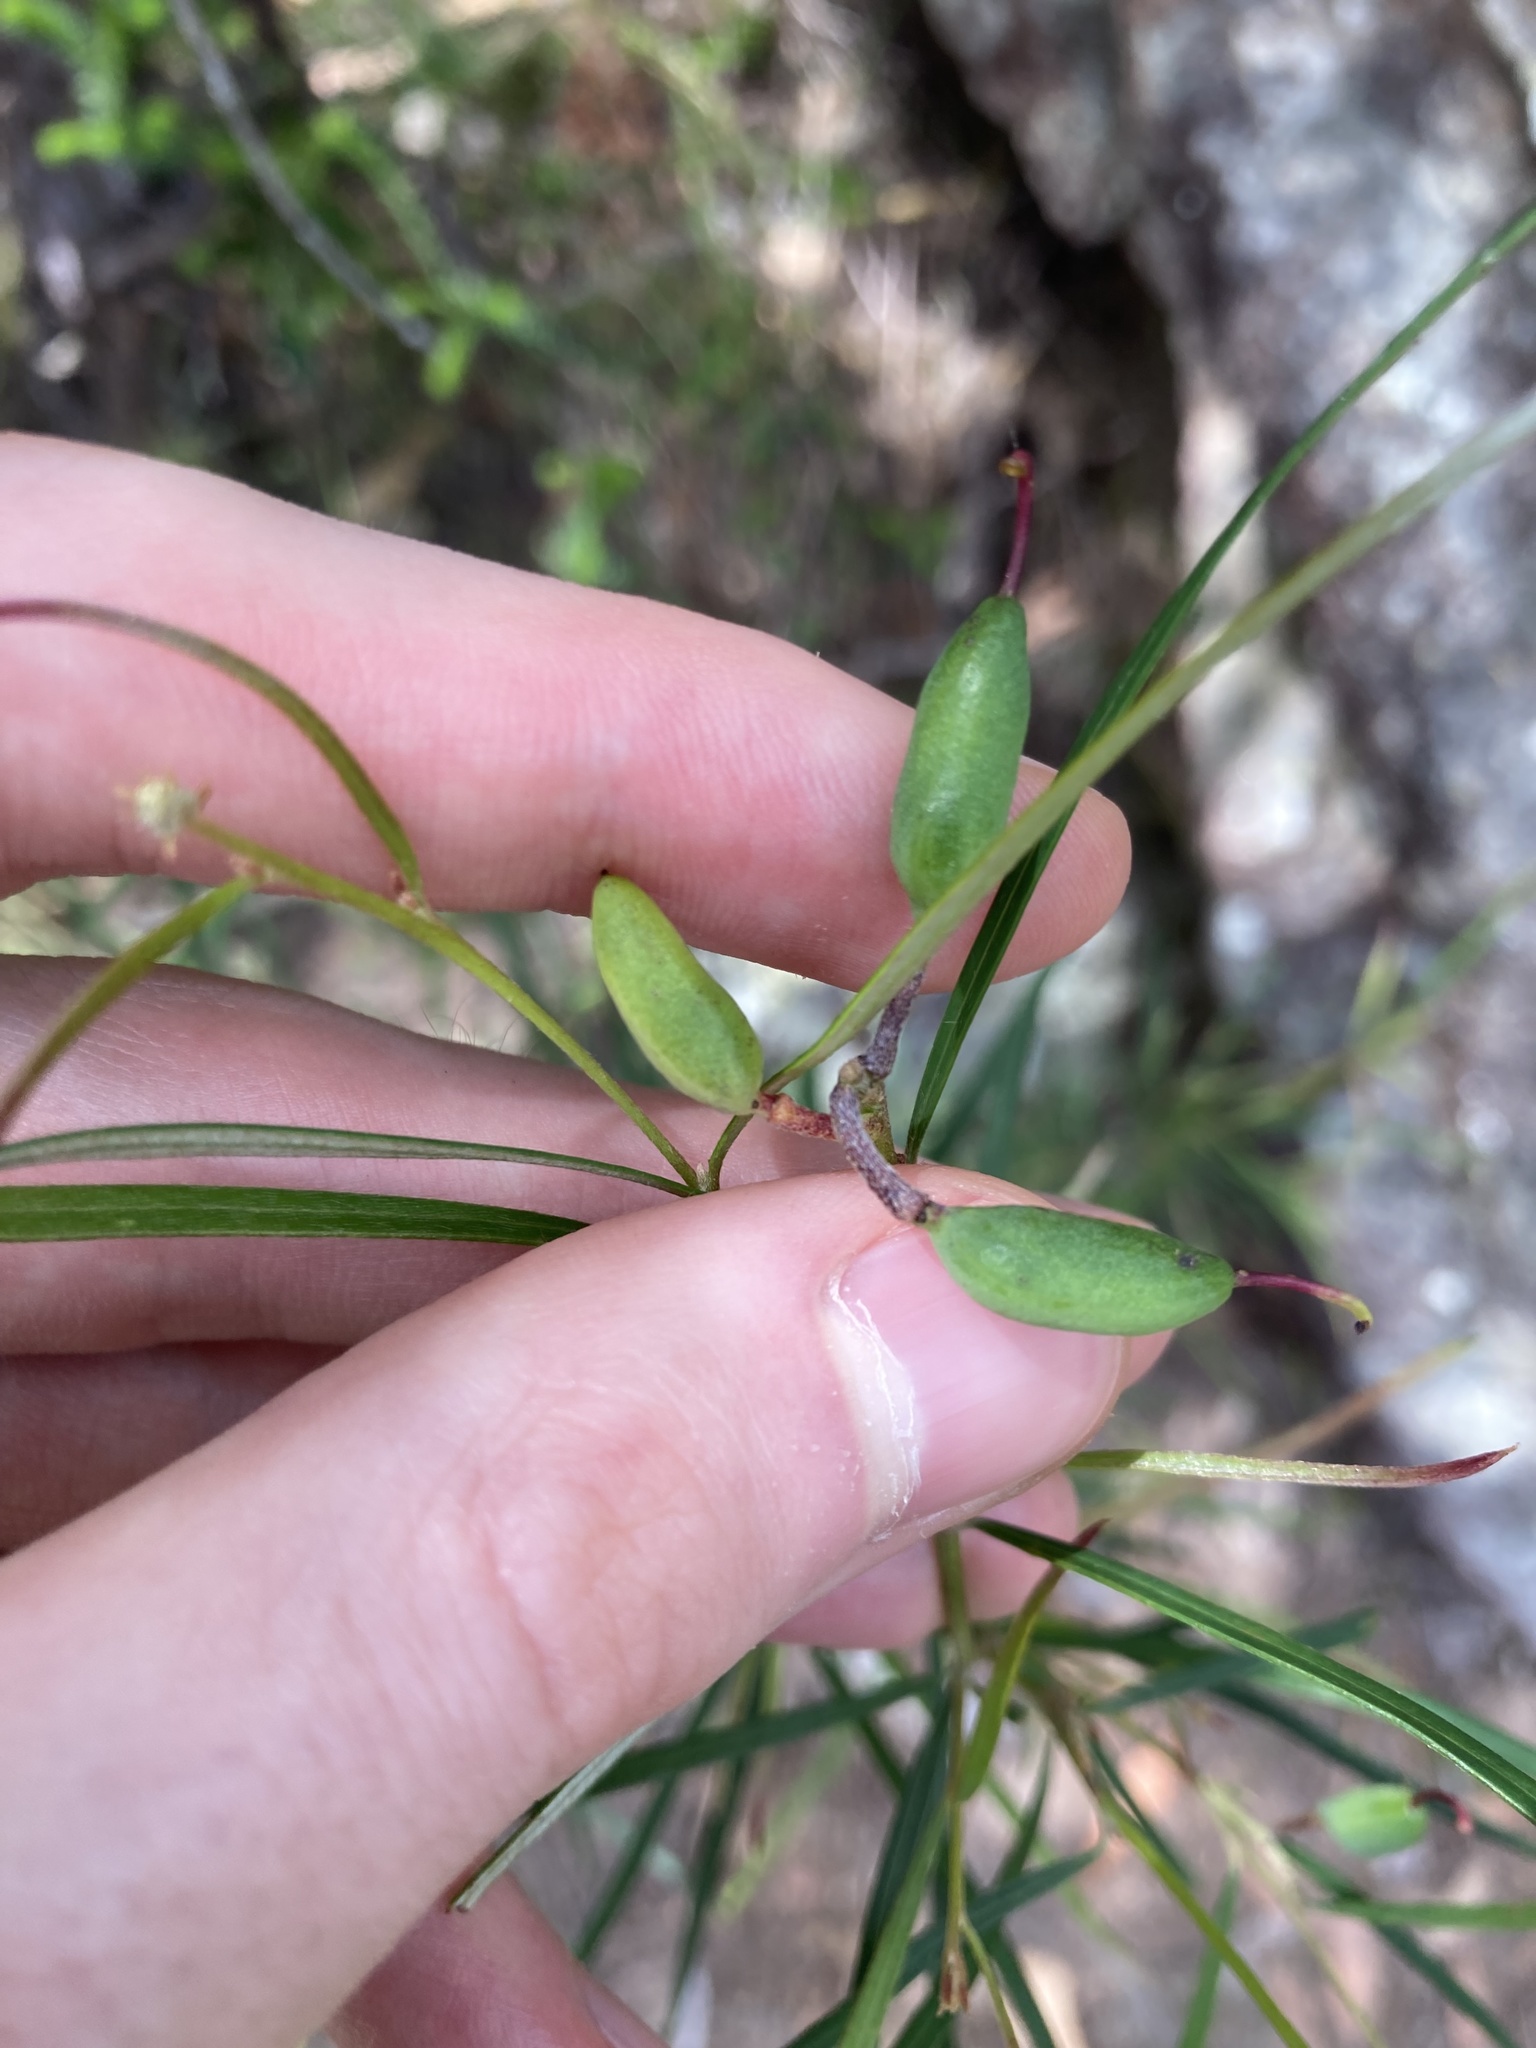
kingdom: Plantae
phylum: Tracheophyta
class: Magnoliopsida
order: Proteales
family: Proteaceae
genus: Grevillea
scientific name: Grevillea linearifolia
